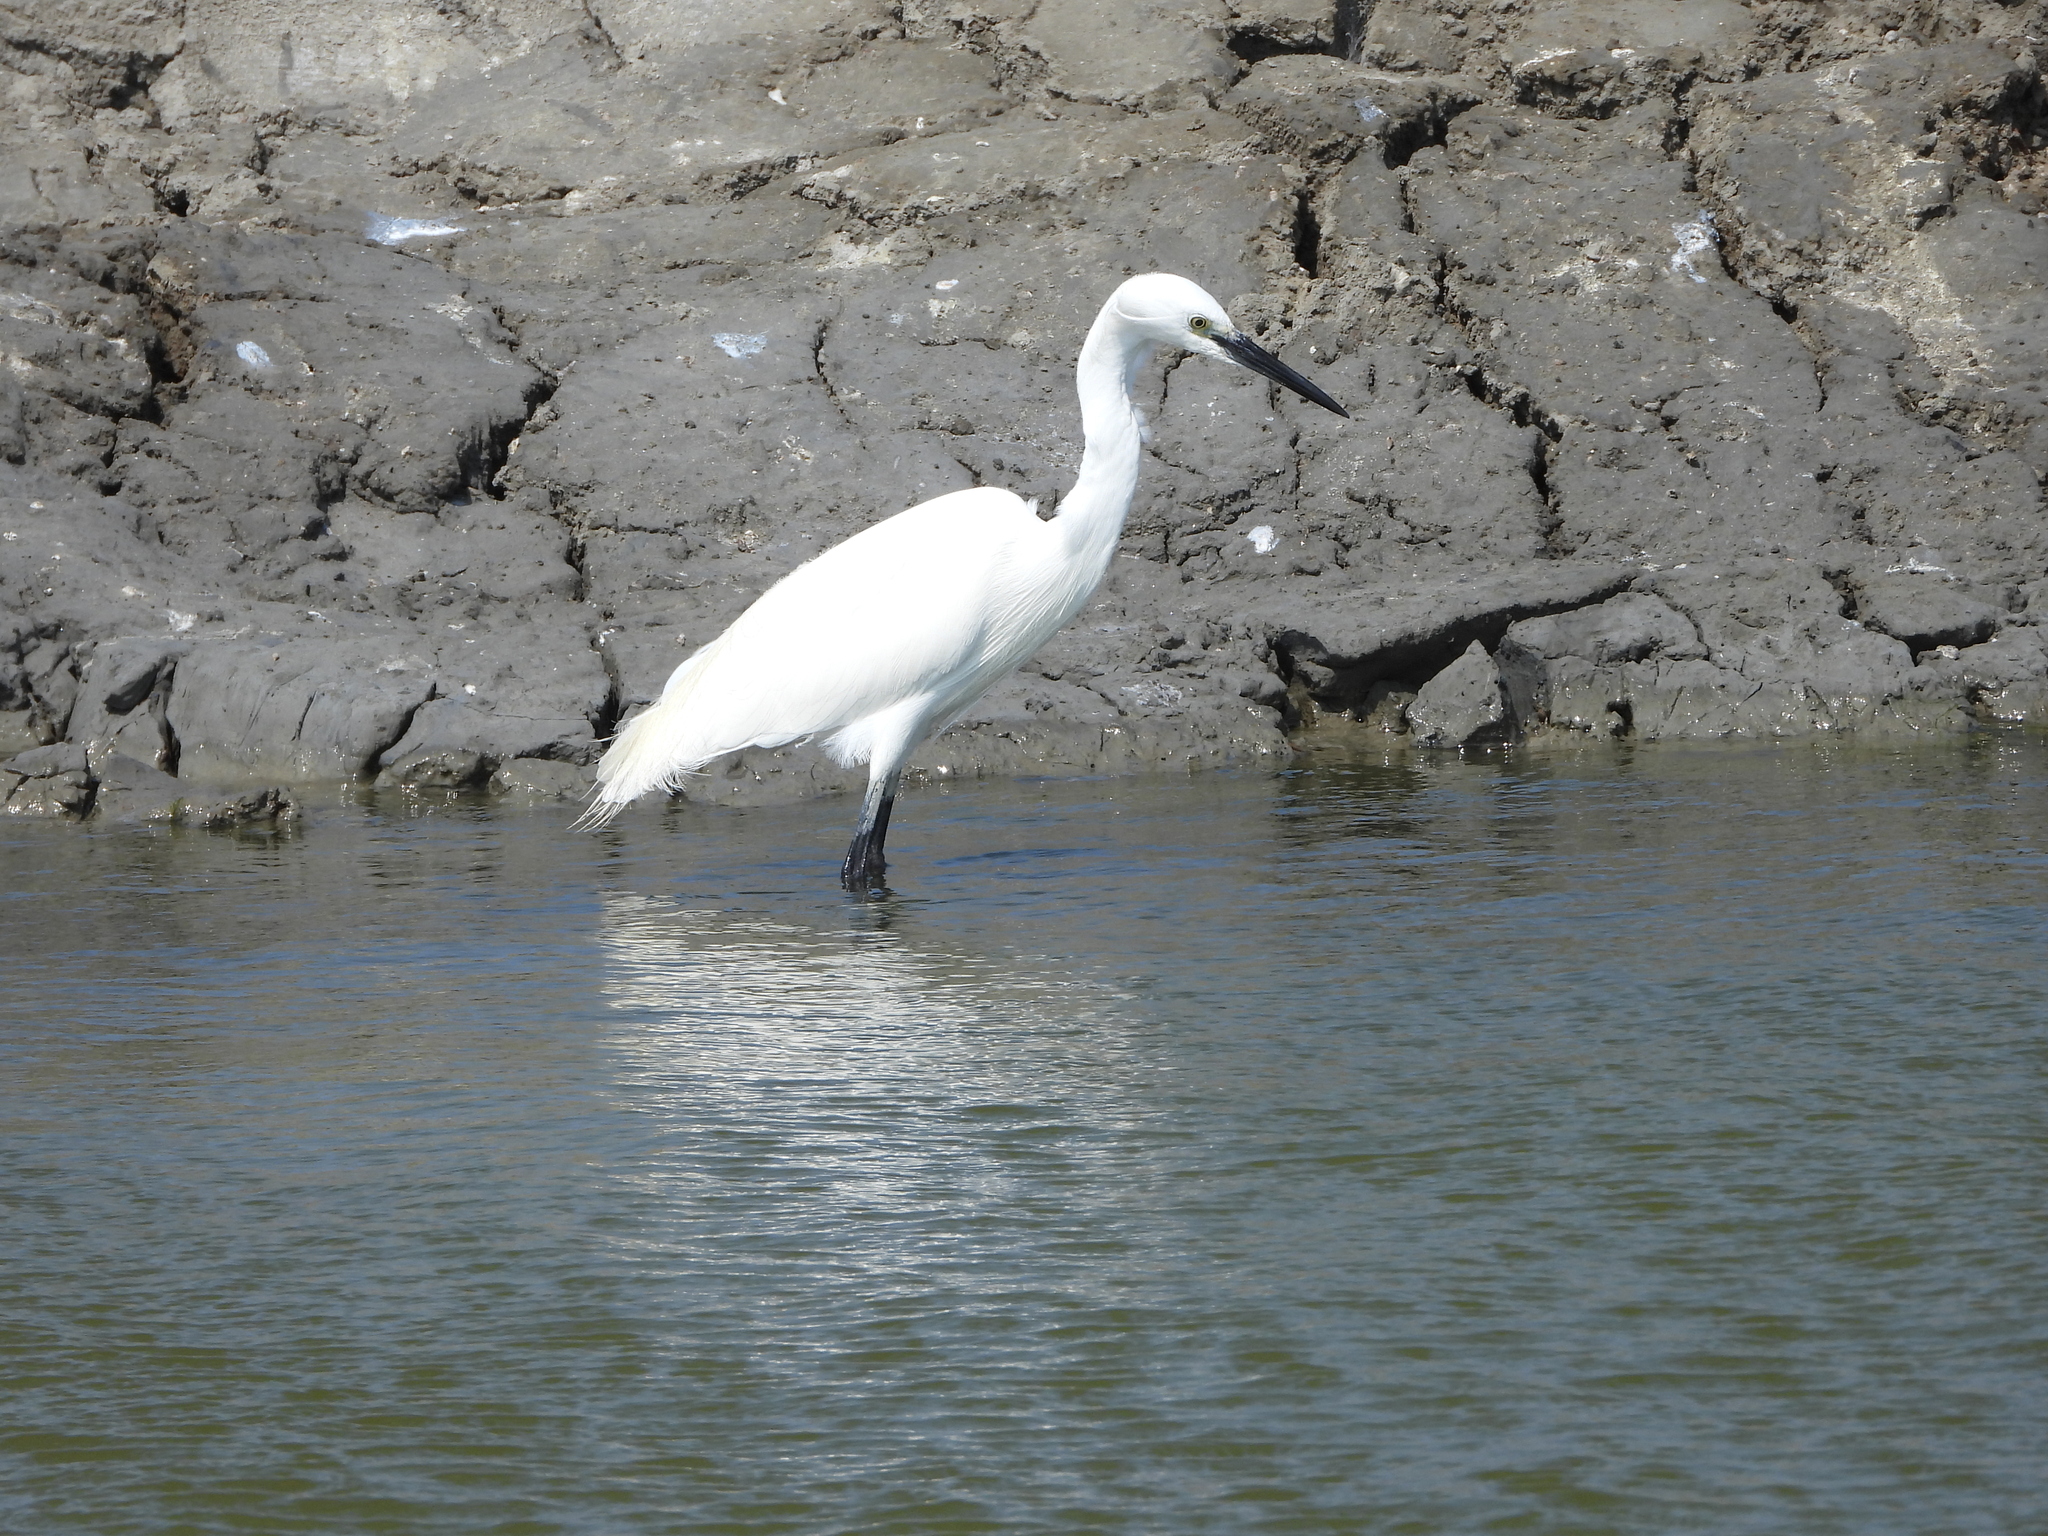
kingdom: Animalia
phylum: Chordata
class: Aves
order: Pelecaniformes
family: Ardeidae
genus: Egretta
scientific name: Egretta garzetta
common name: Little egret
